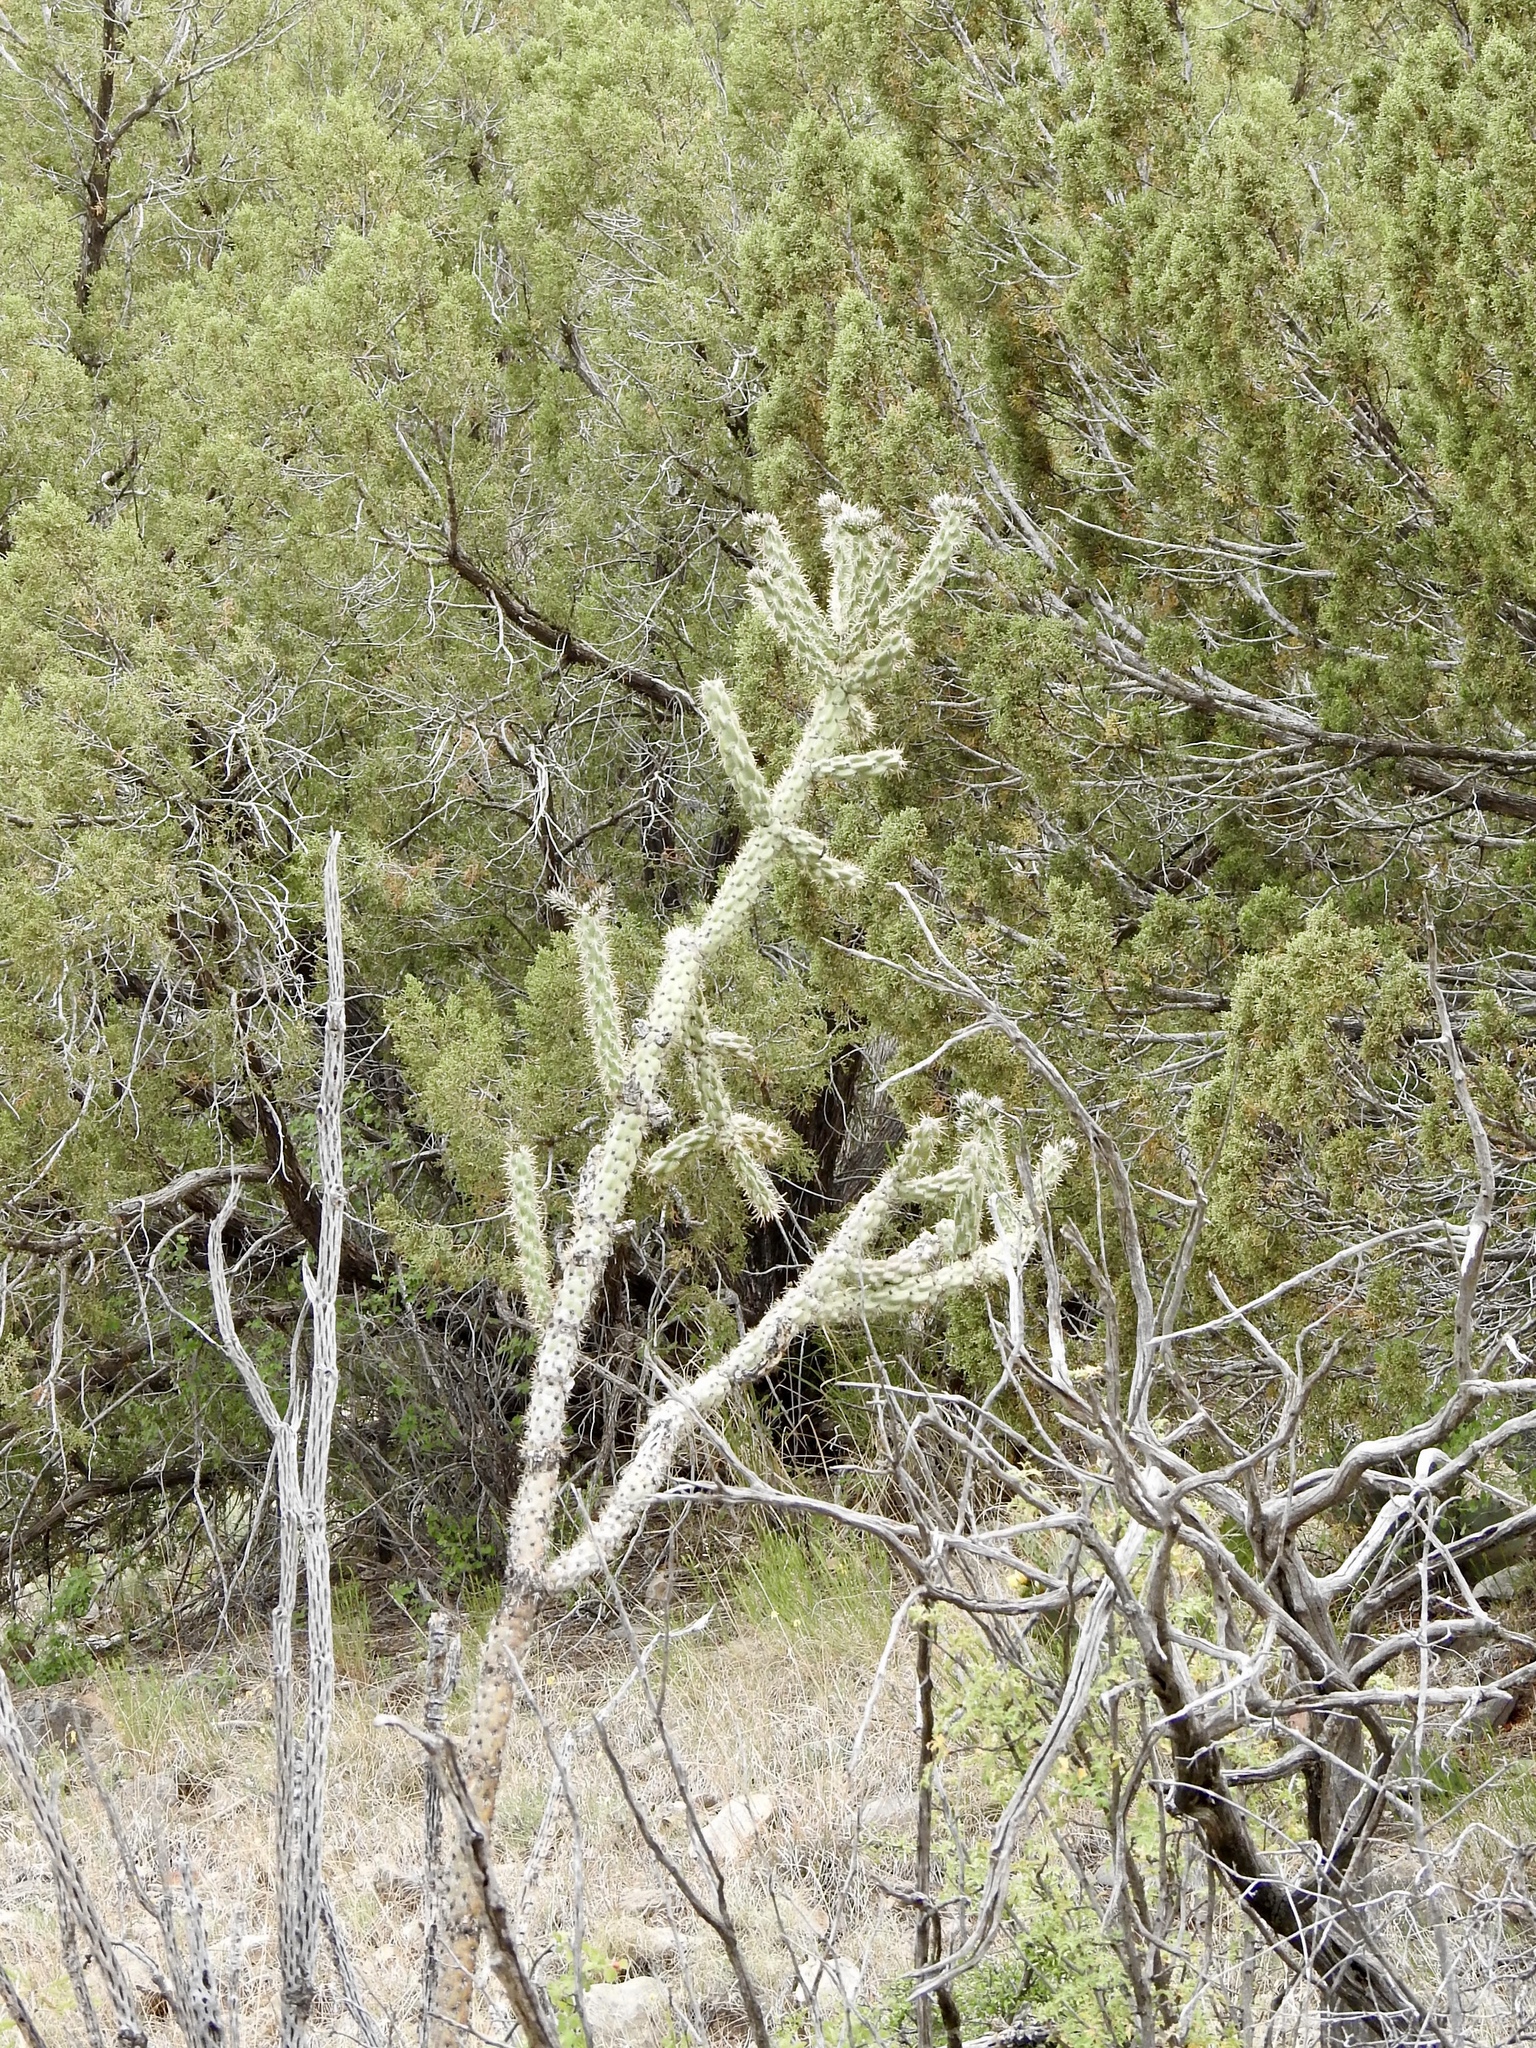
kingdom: Plantae
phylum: Tracheophyta
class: Magnoliopsida
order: Caryophyllales
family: Cactaceae
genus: Cylindropuntia
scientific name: Cylindropuntia imbricata
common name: Candelabrum cactus
